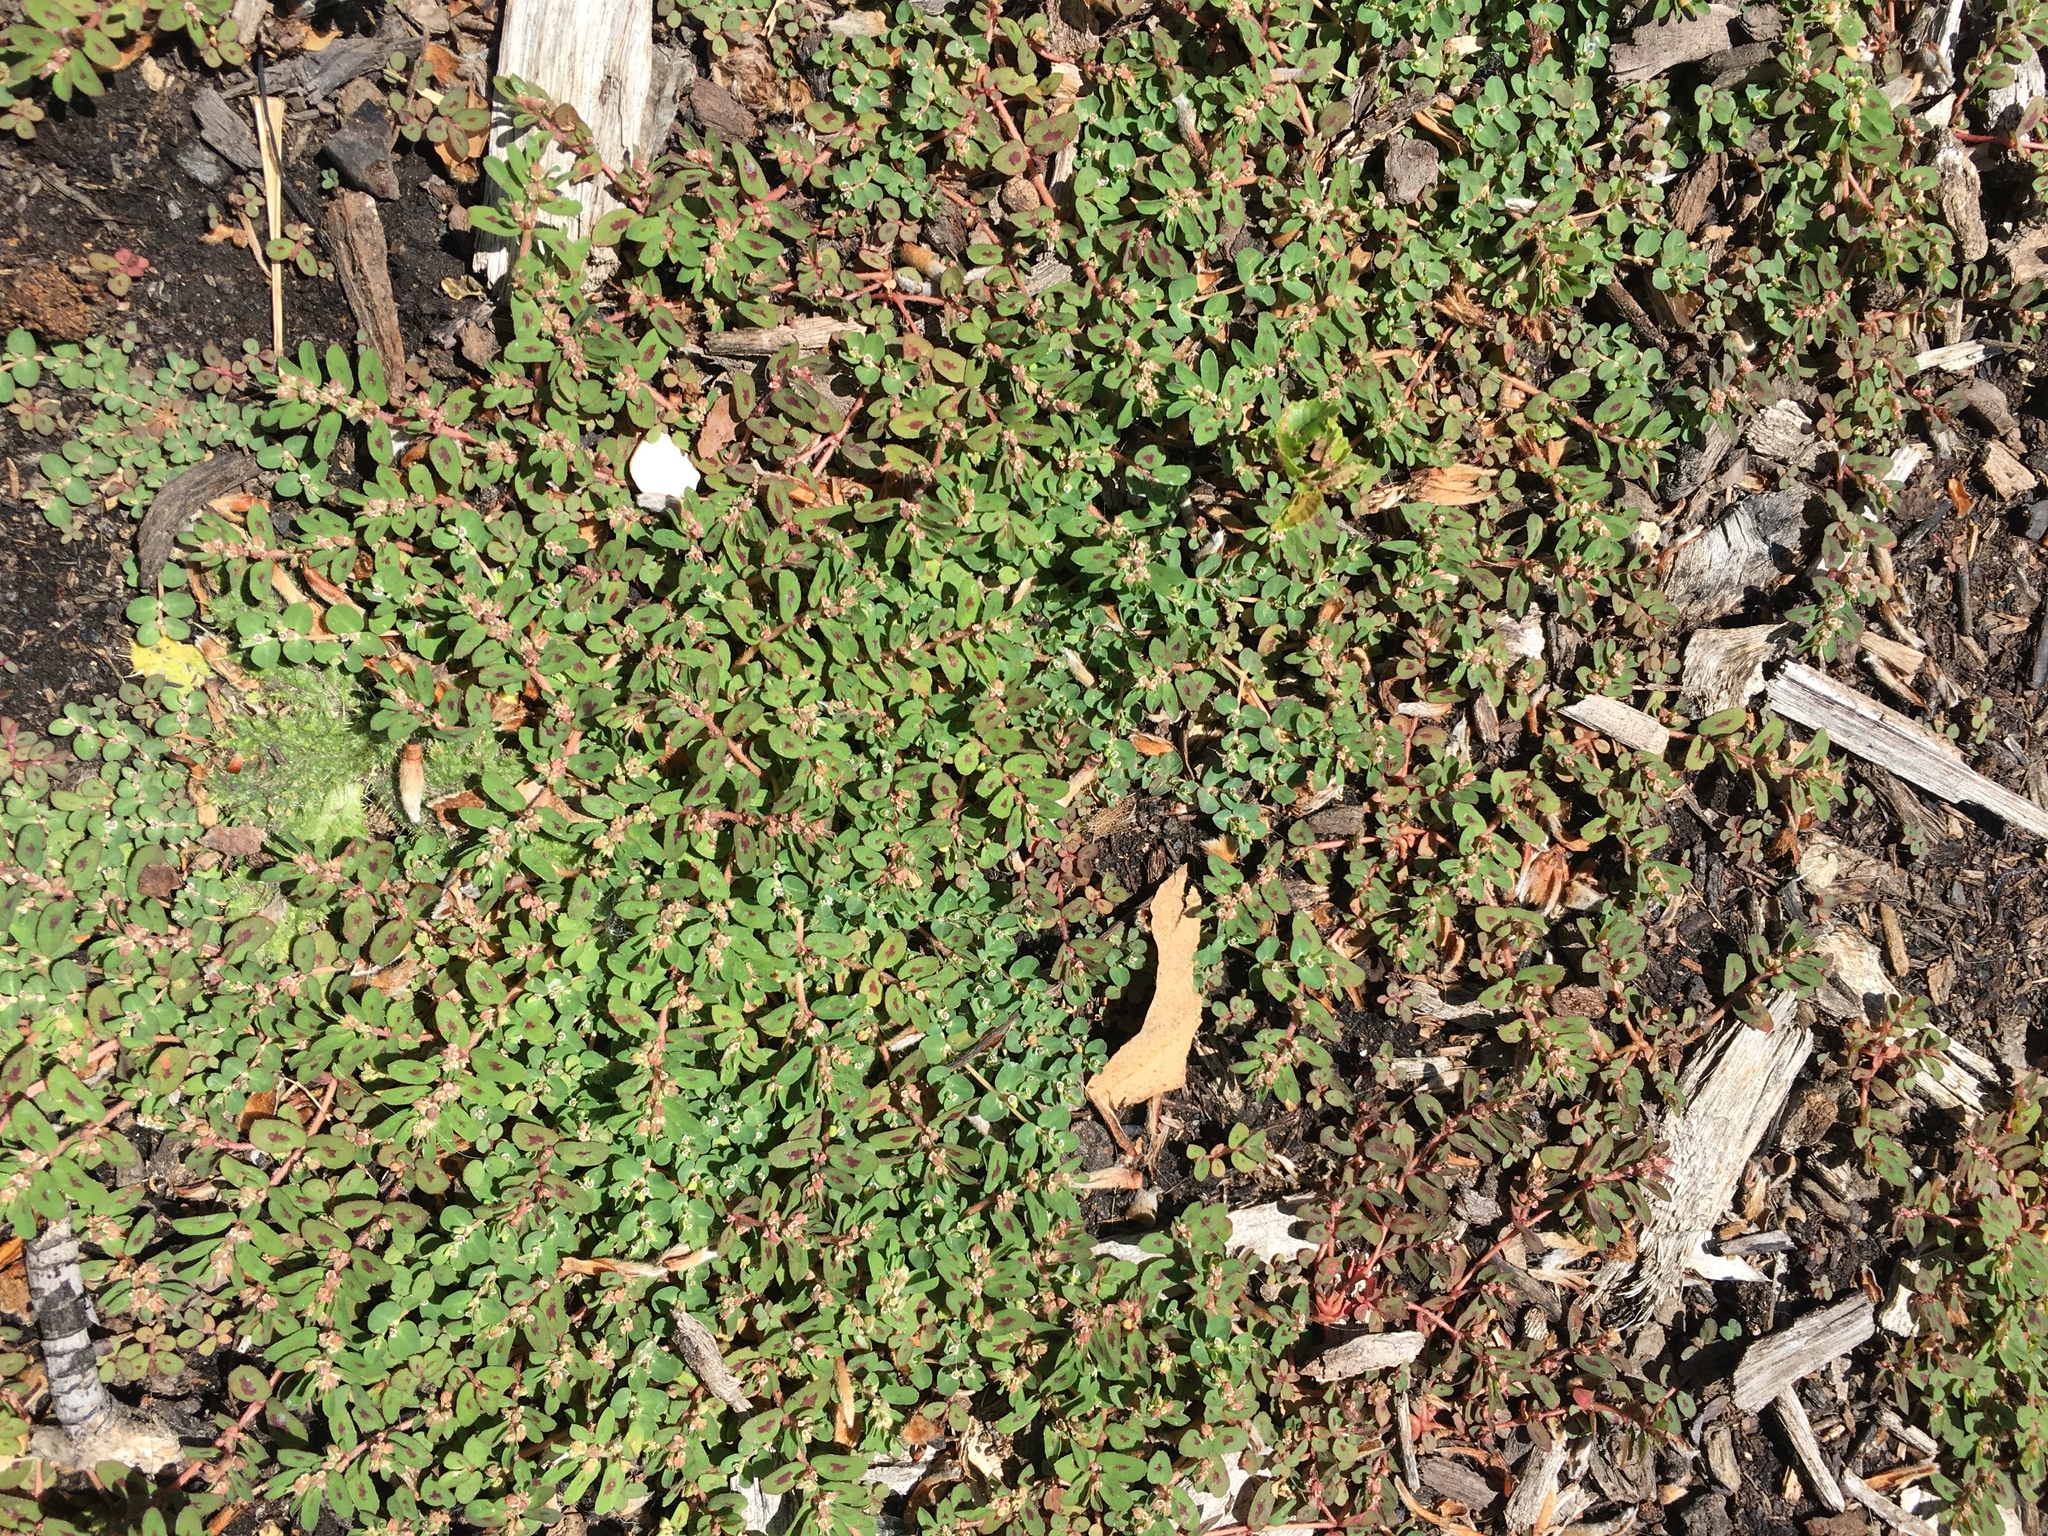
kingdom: Plantae
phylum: Tracheophyta
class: Magnoliopsida
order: Malpighiales
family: Euphorbiaceae
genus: Euphorbia
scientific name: Euphorbia maculata
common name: Spotted spurge
